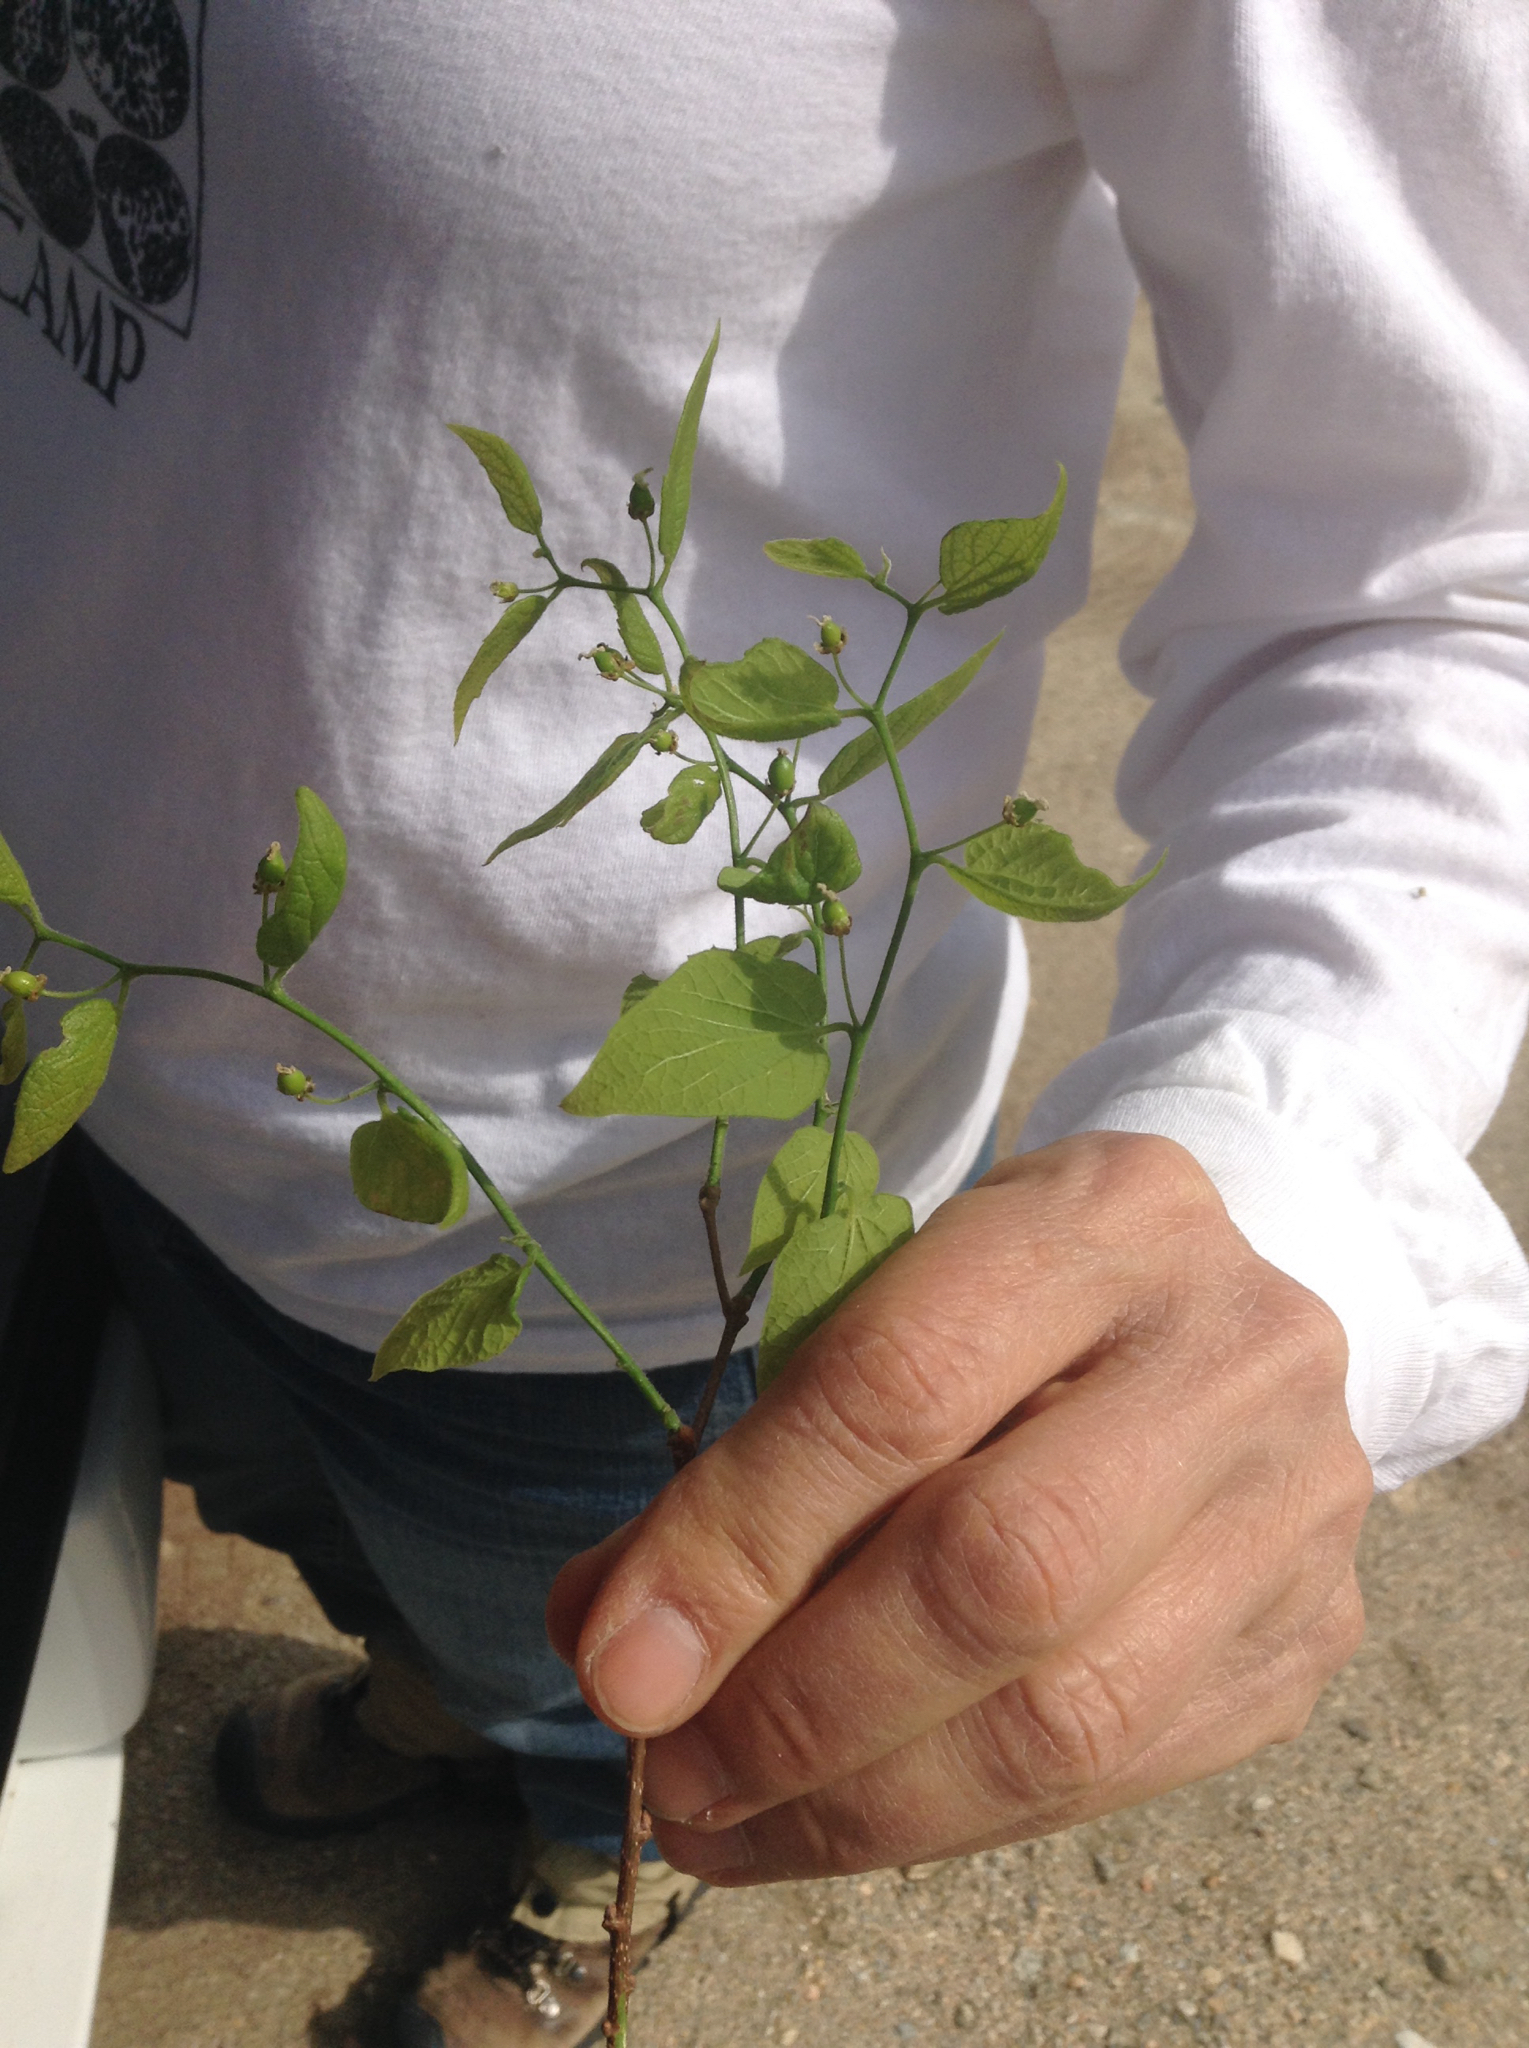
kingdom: Plantae
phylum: Tracheophyta
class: Magnoliopsida
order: Rosales
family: Cannabaceae
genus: Celtis
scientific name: Celtis reticulata
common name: Netleaf hackberry
